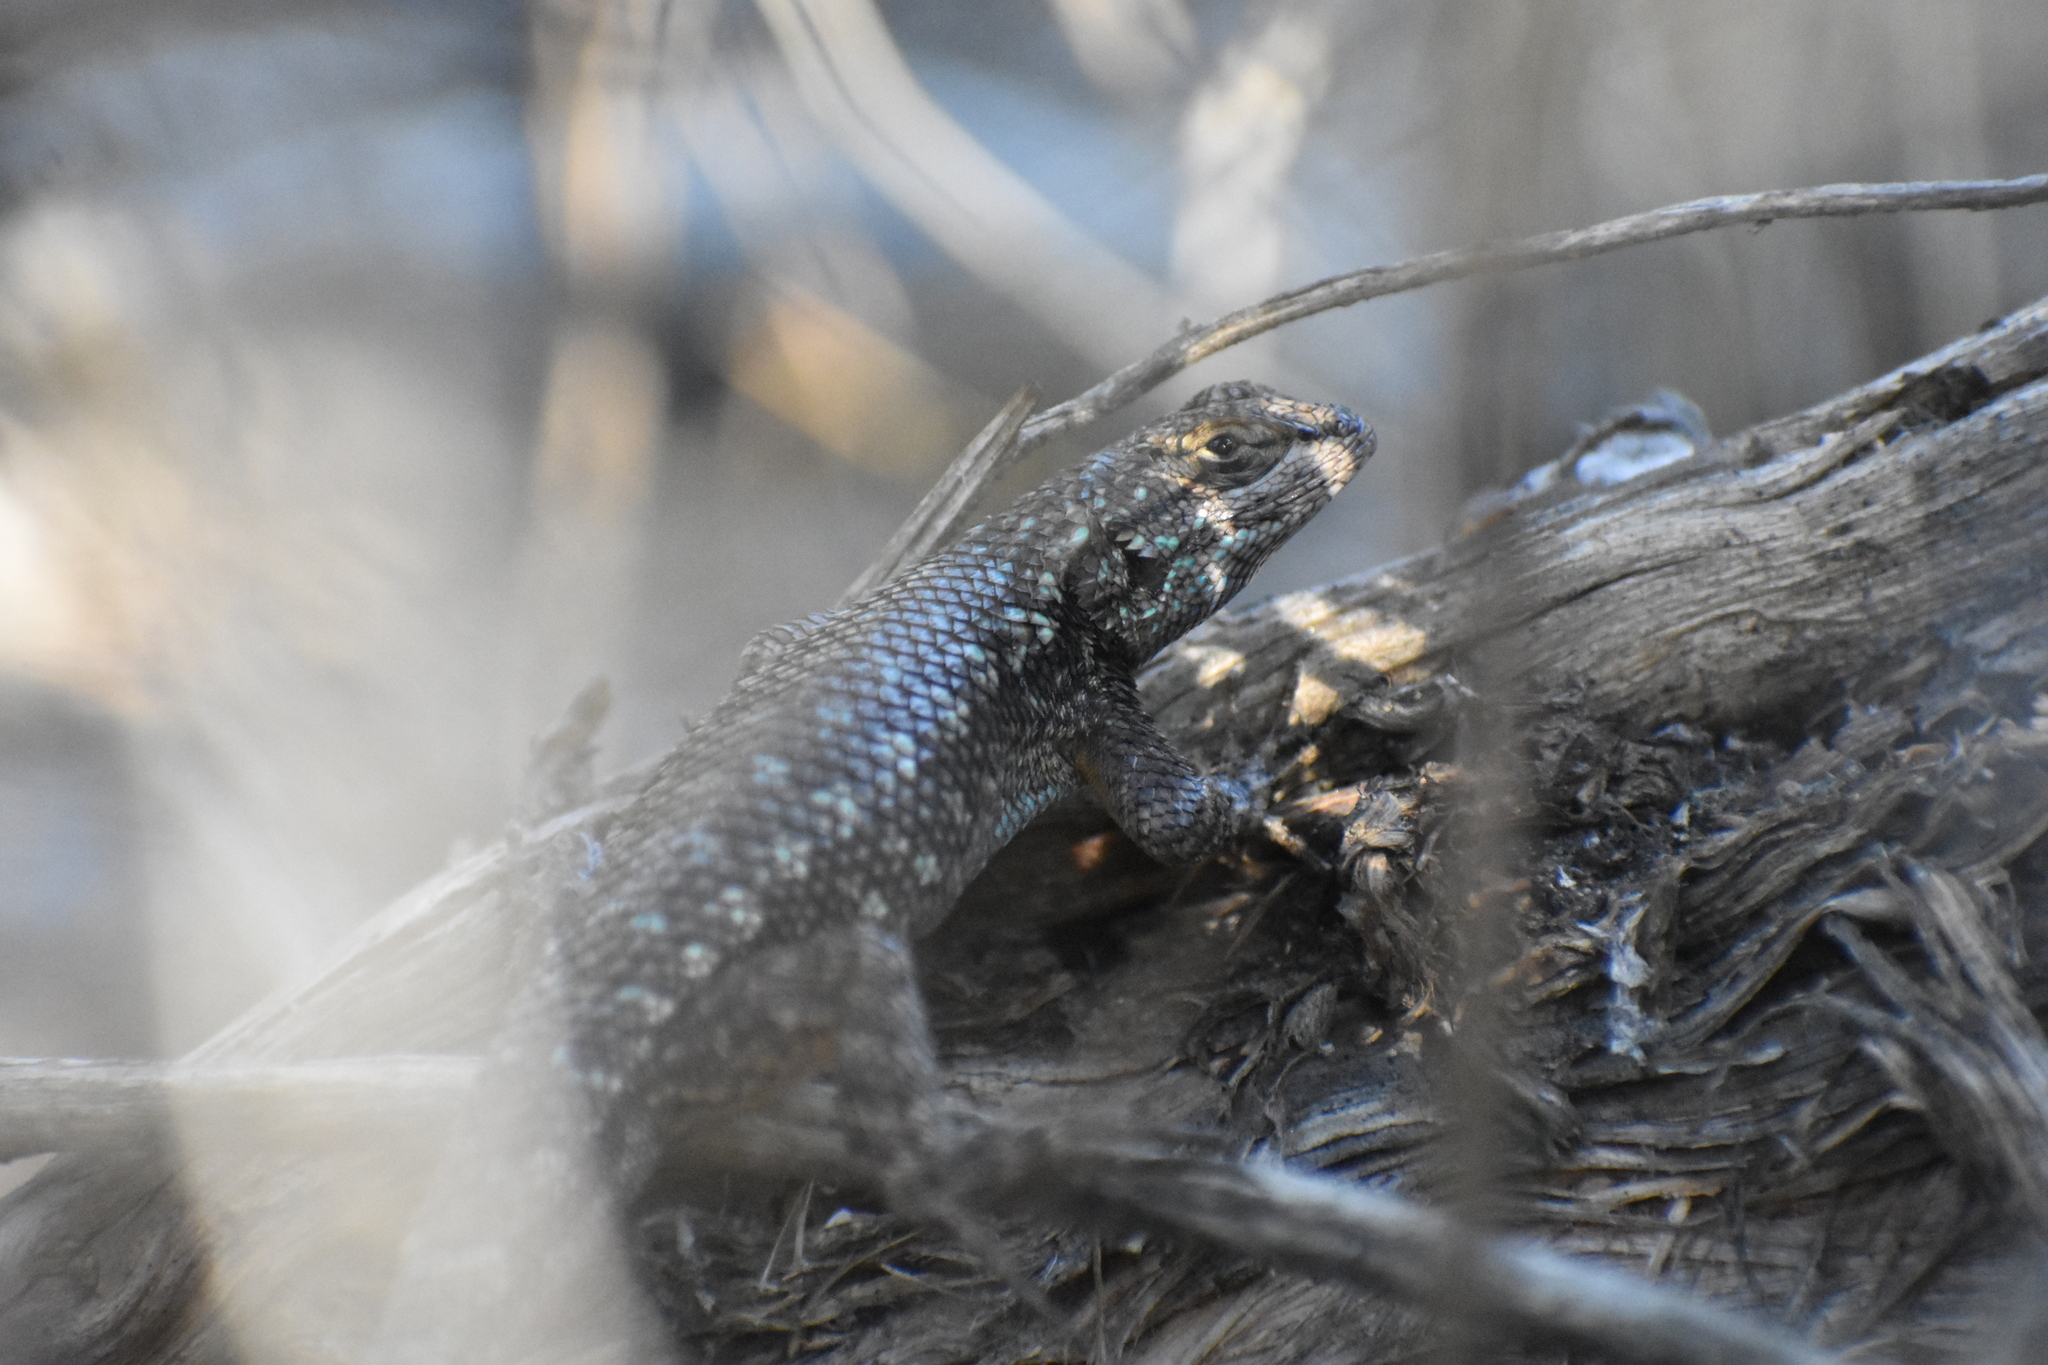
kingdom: Animalia
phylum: Chordata
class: Squamata
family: Phrynosomatidae
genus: Sceloporus
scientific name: Sceloporus occidentalis
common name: Western fence lizard
